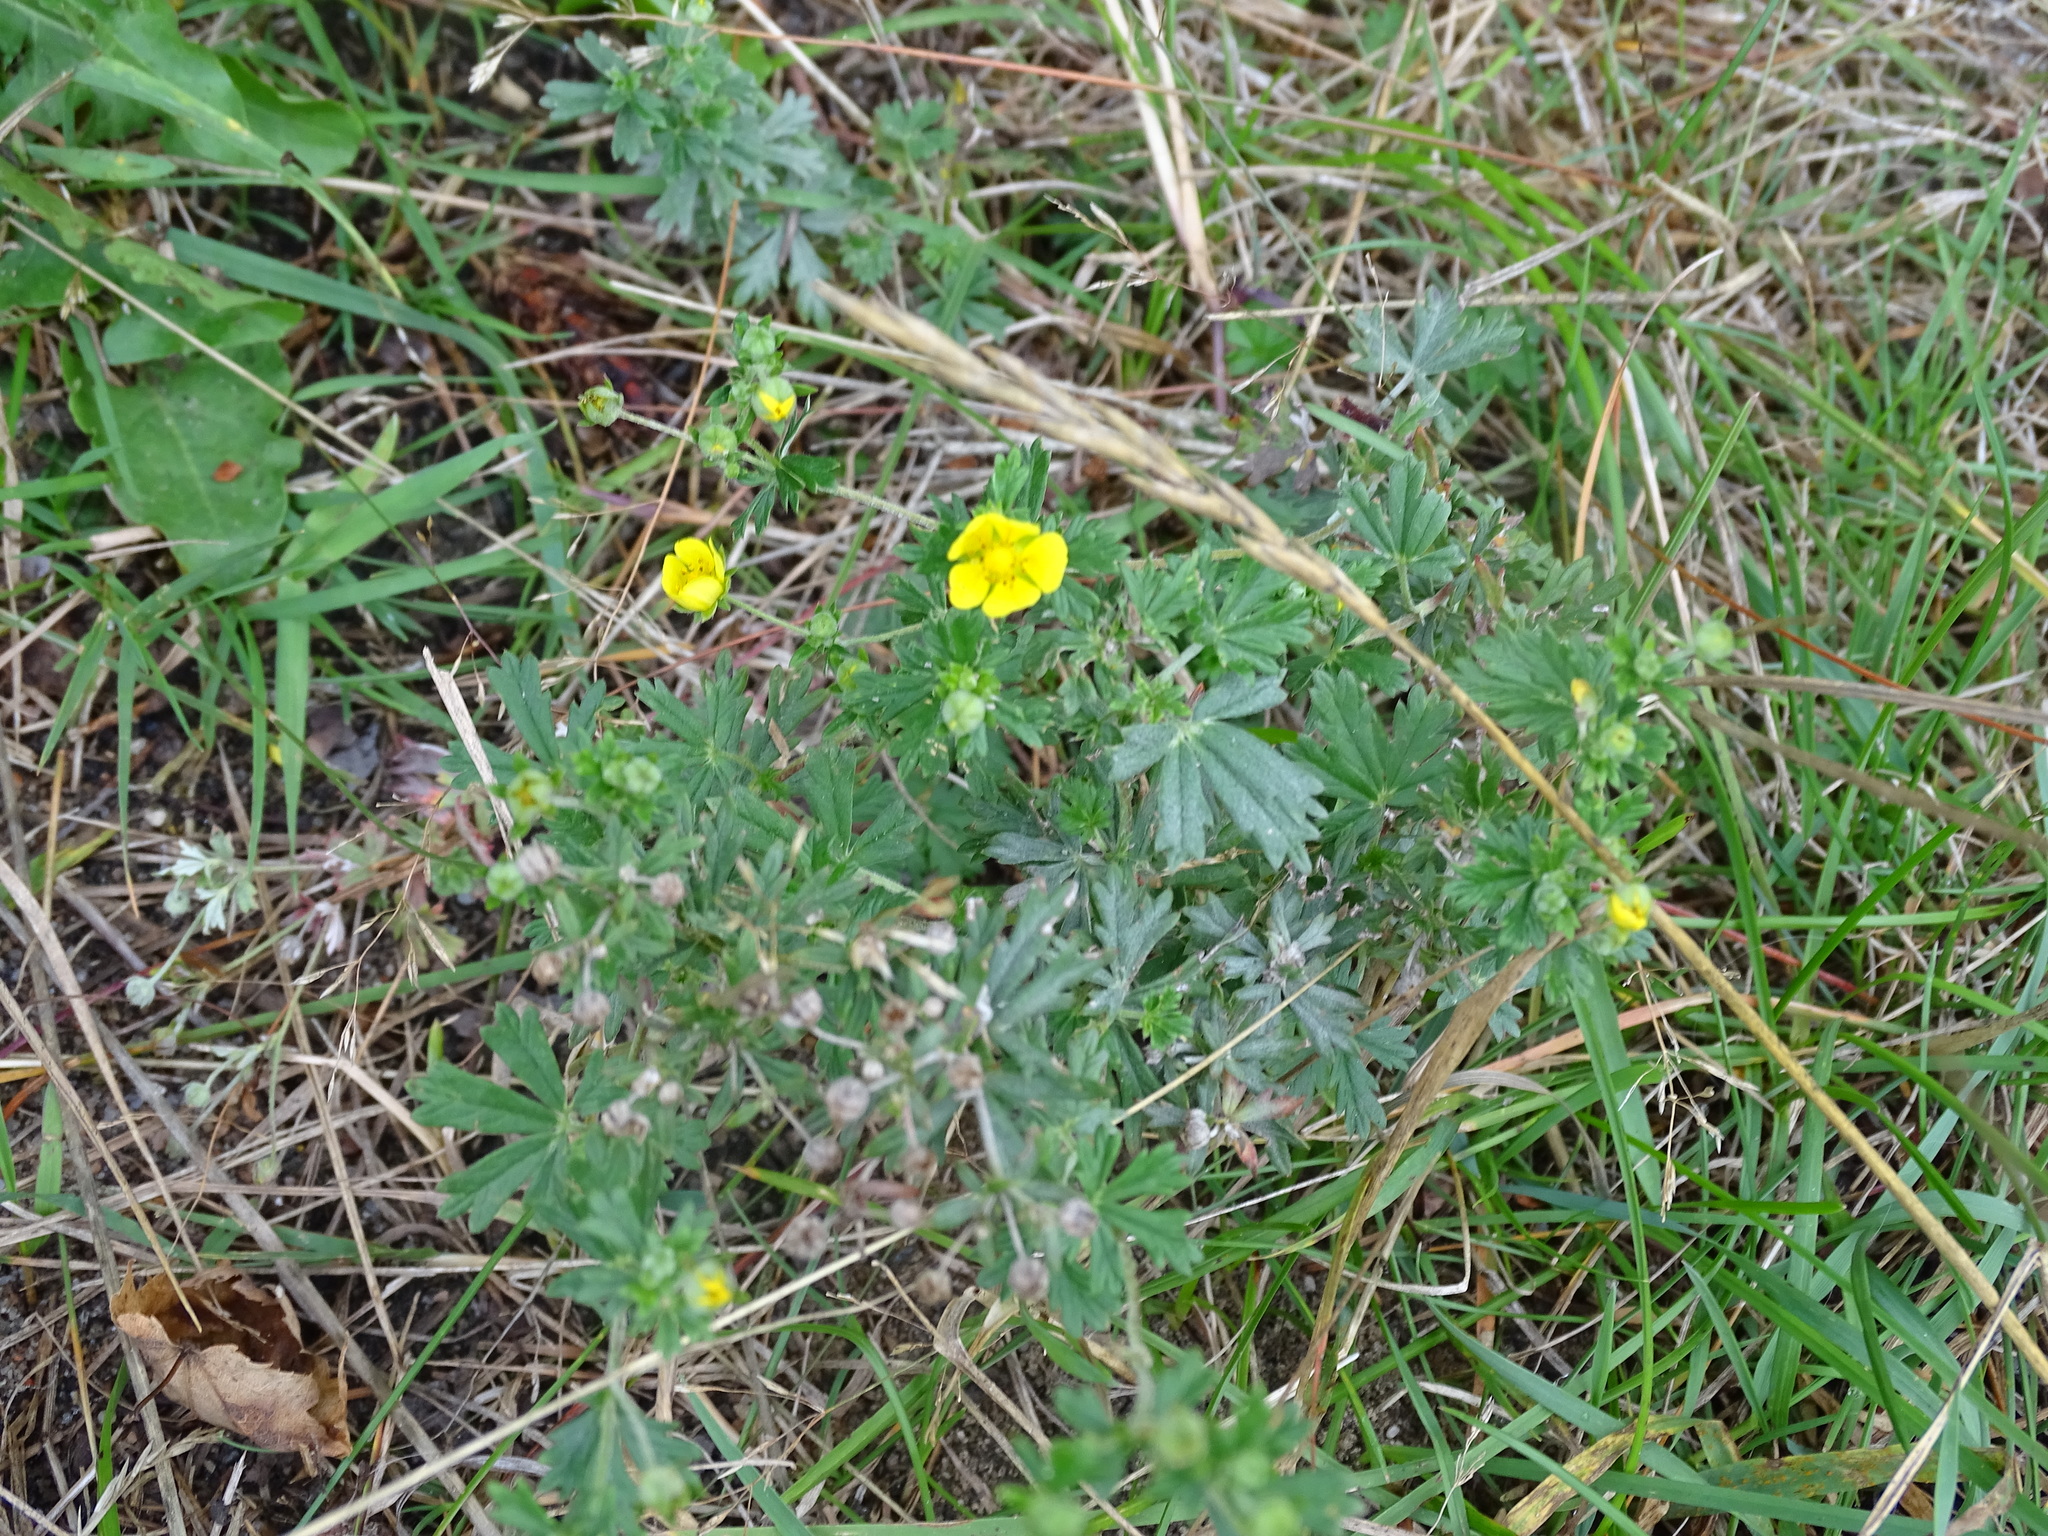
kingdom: Plantae
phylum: Tracheophyta
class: Magnoliopsida
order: Rosales
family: Rosaceae
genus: Potentilla
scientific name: Potentilla argentea
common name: Hoary cinquefoil
